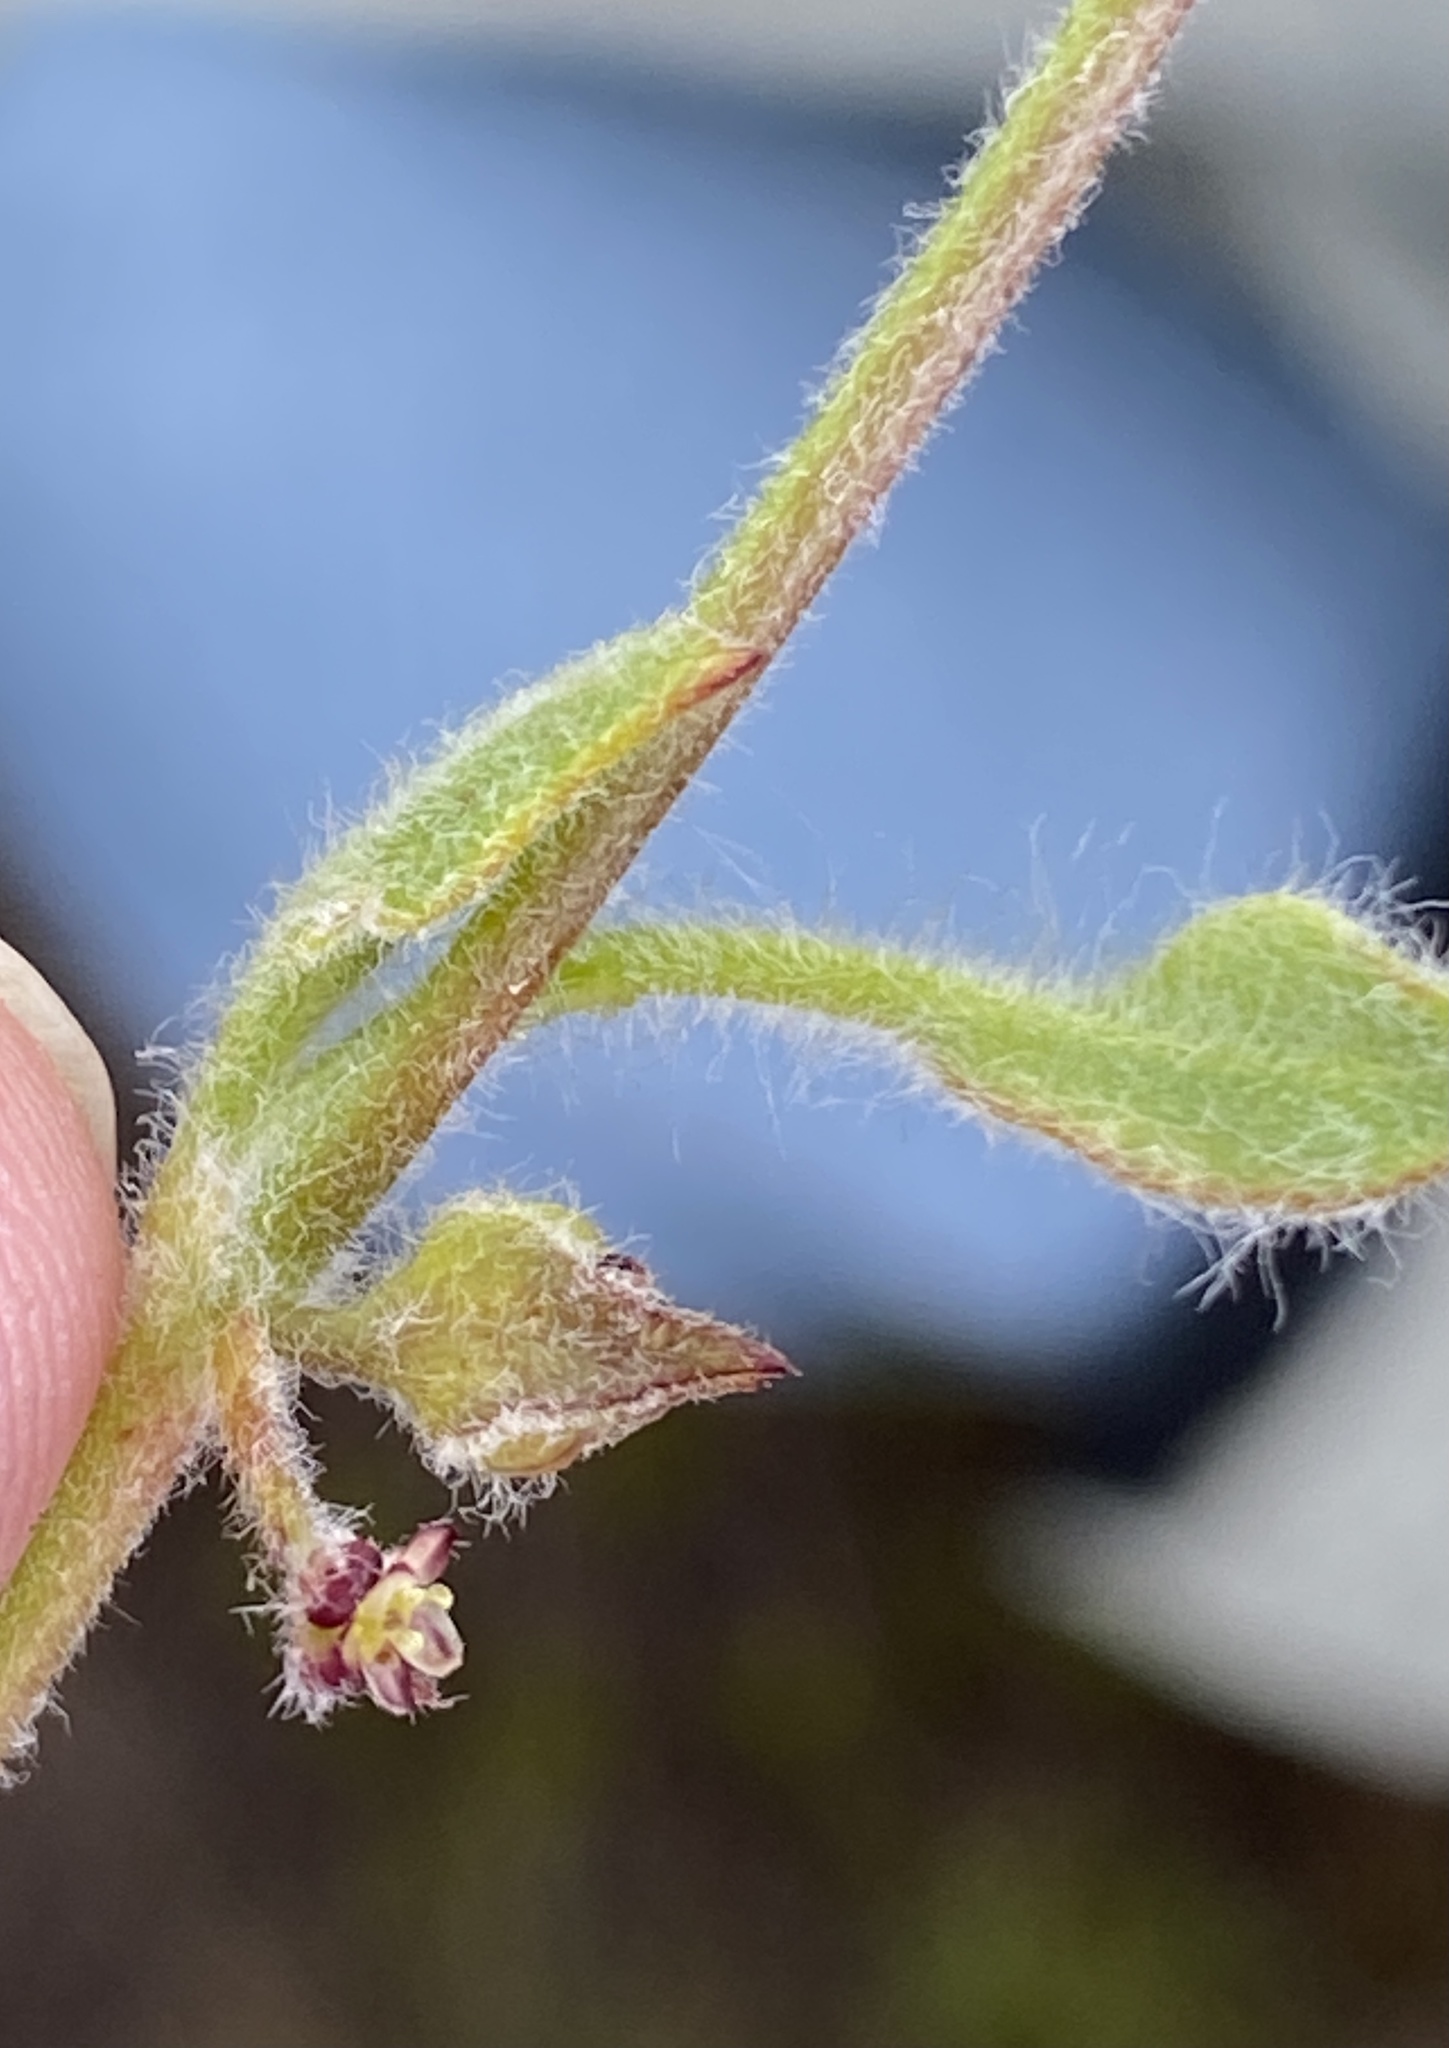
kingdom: Plantae
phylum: Tracheophyta
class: Magnoliopsida
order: Apiales
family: Apiaceae
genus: Centella
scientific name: Centella montana
